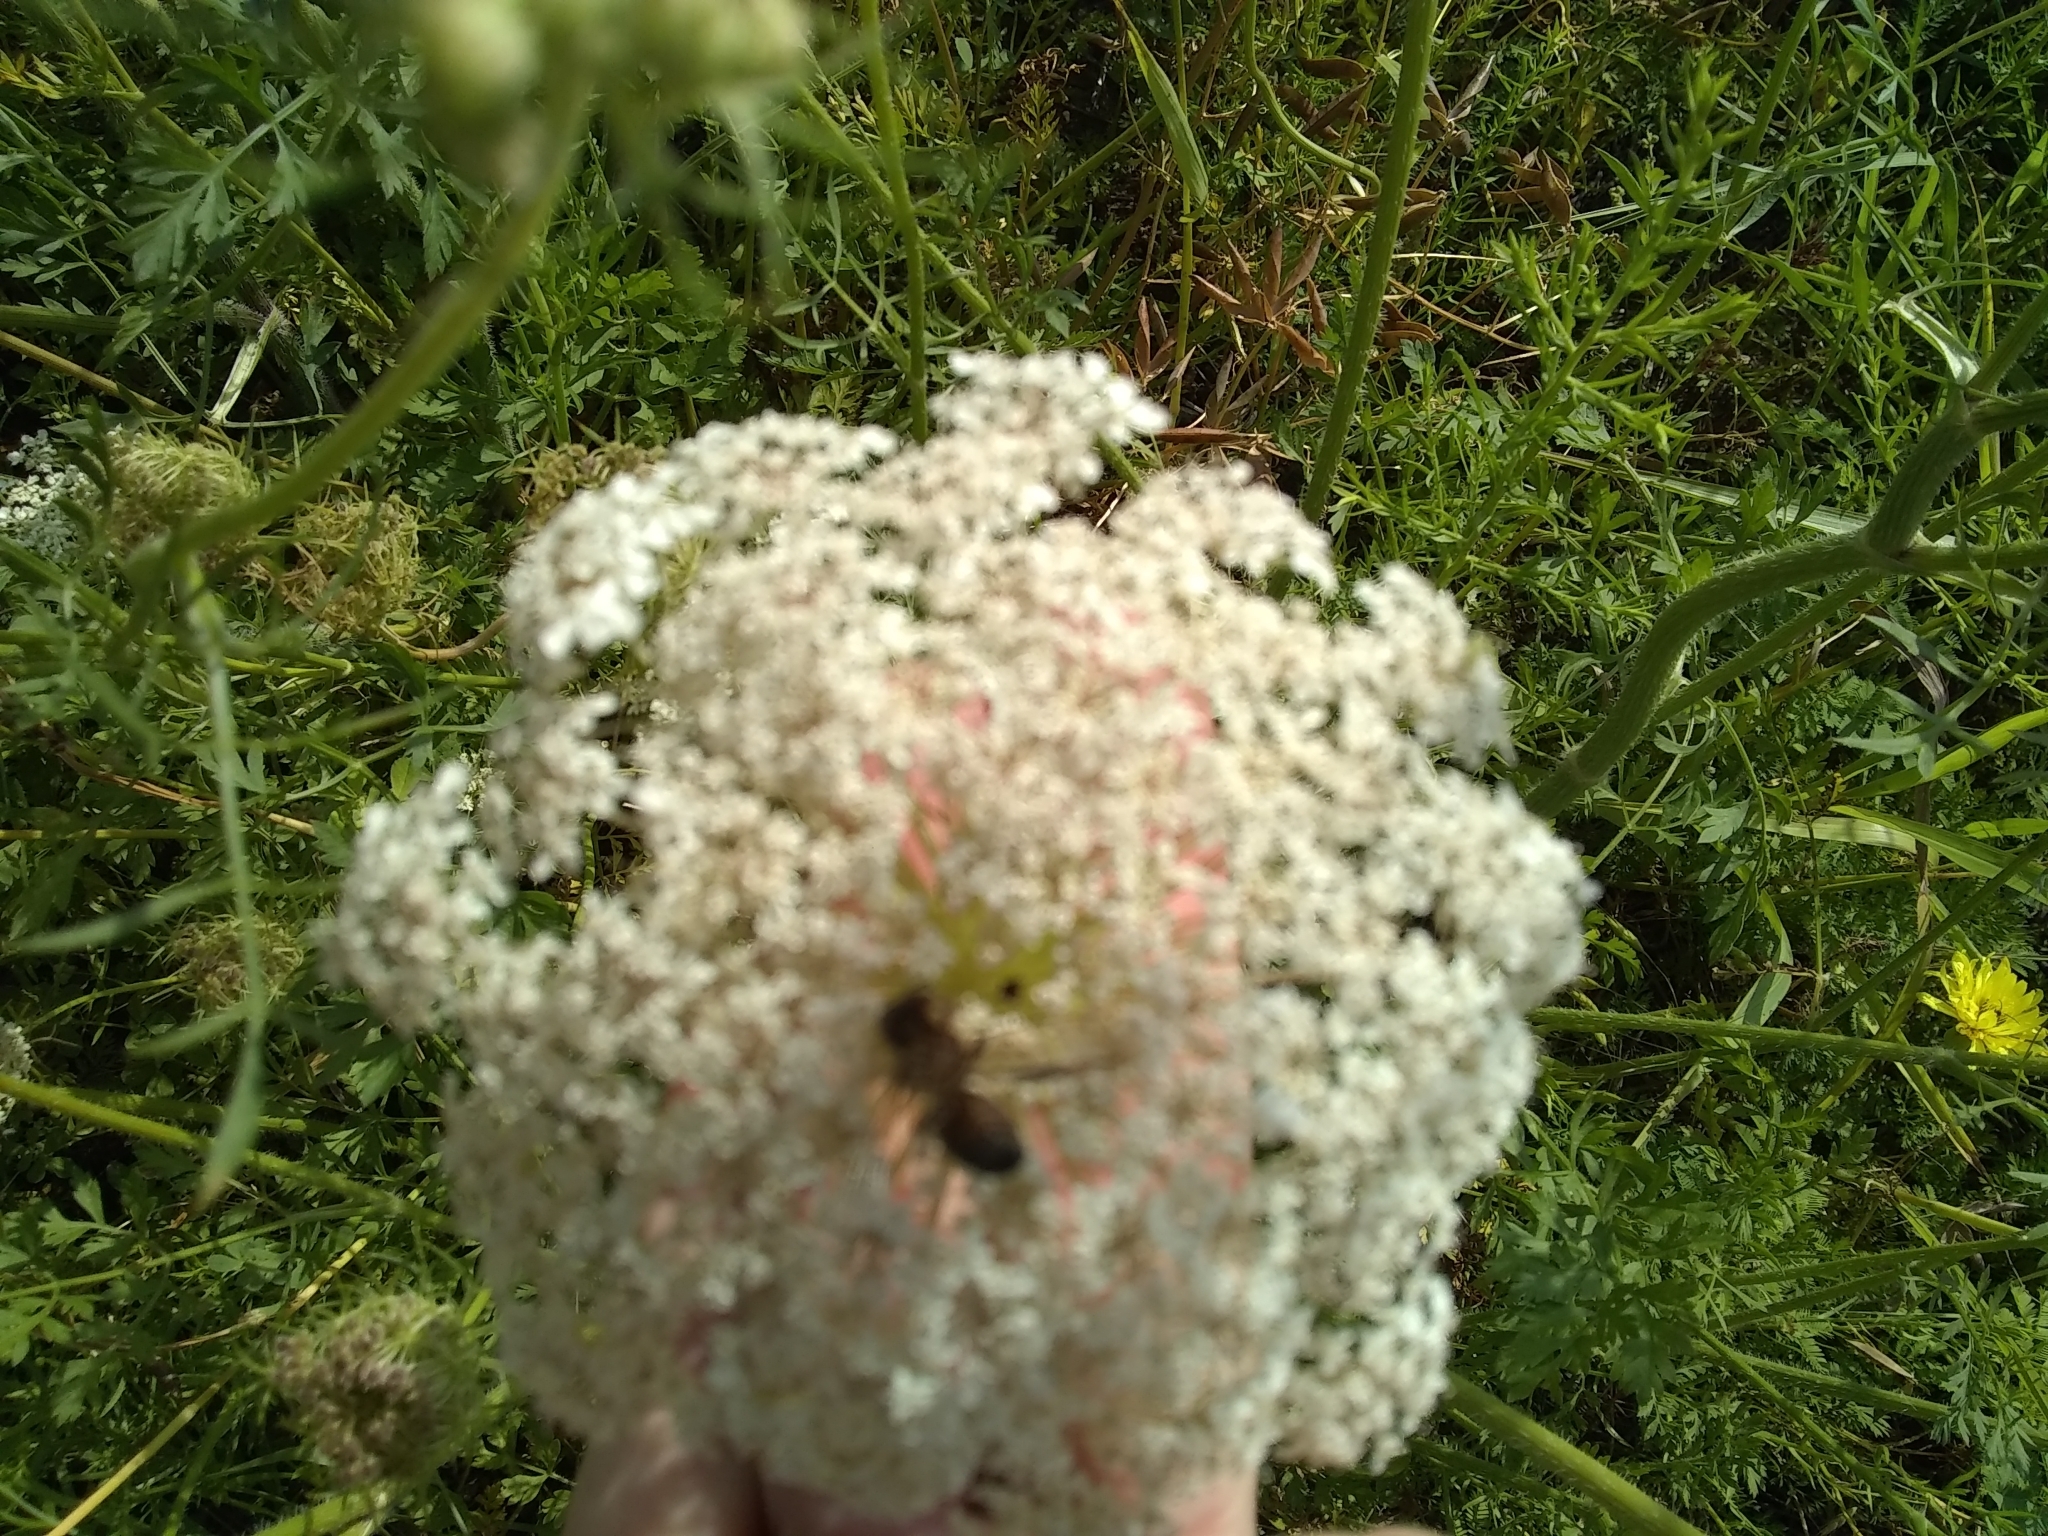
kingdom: Animalia
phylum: Arthropoda
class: Insecta
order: Hymenoptera
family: Apidae
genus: Apis
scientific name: Apis mellifera
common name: Honey bee
